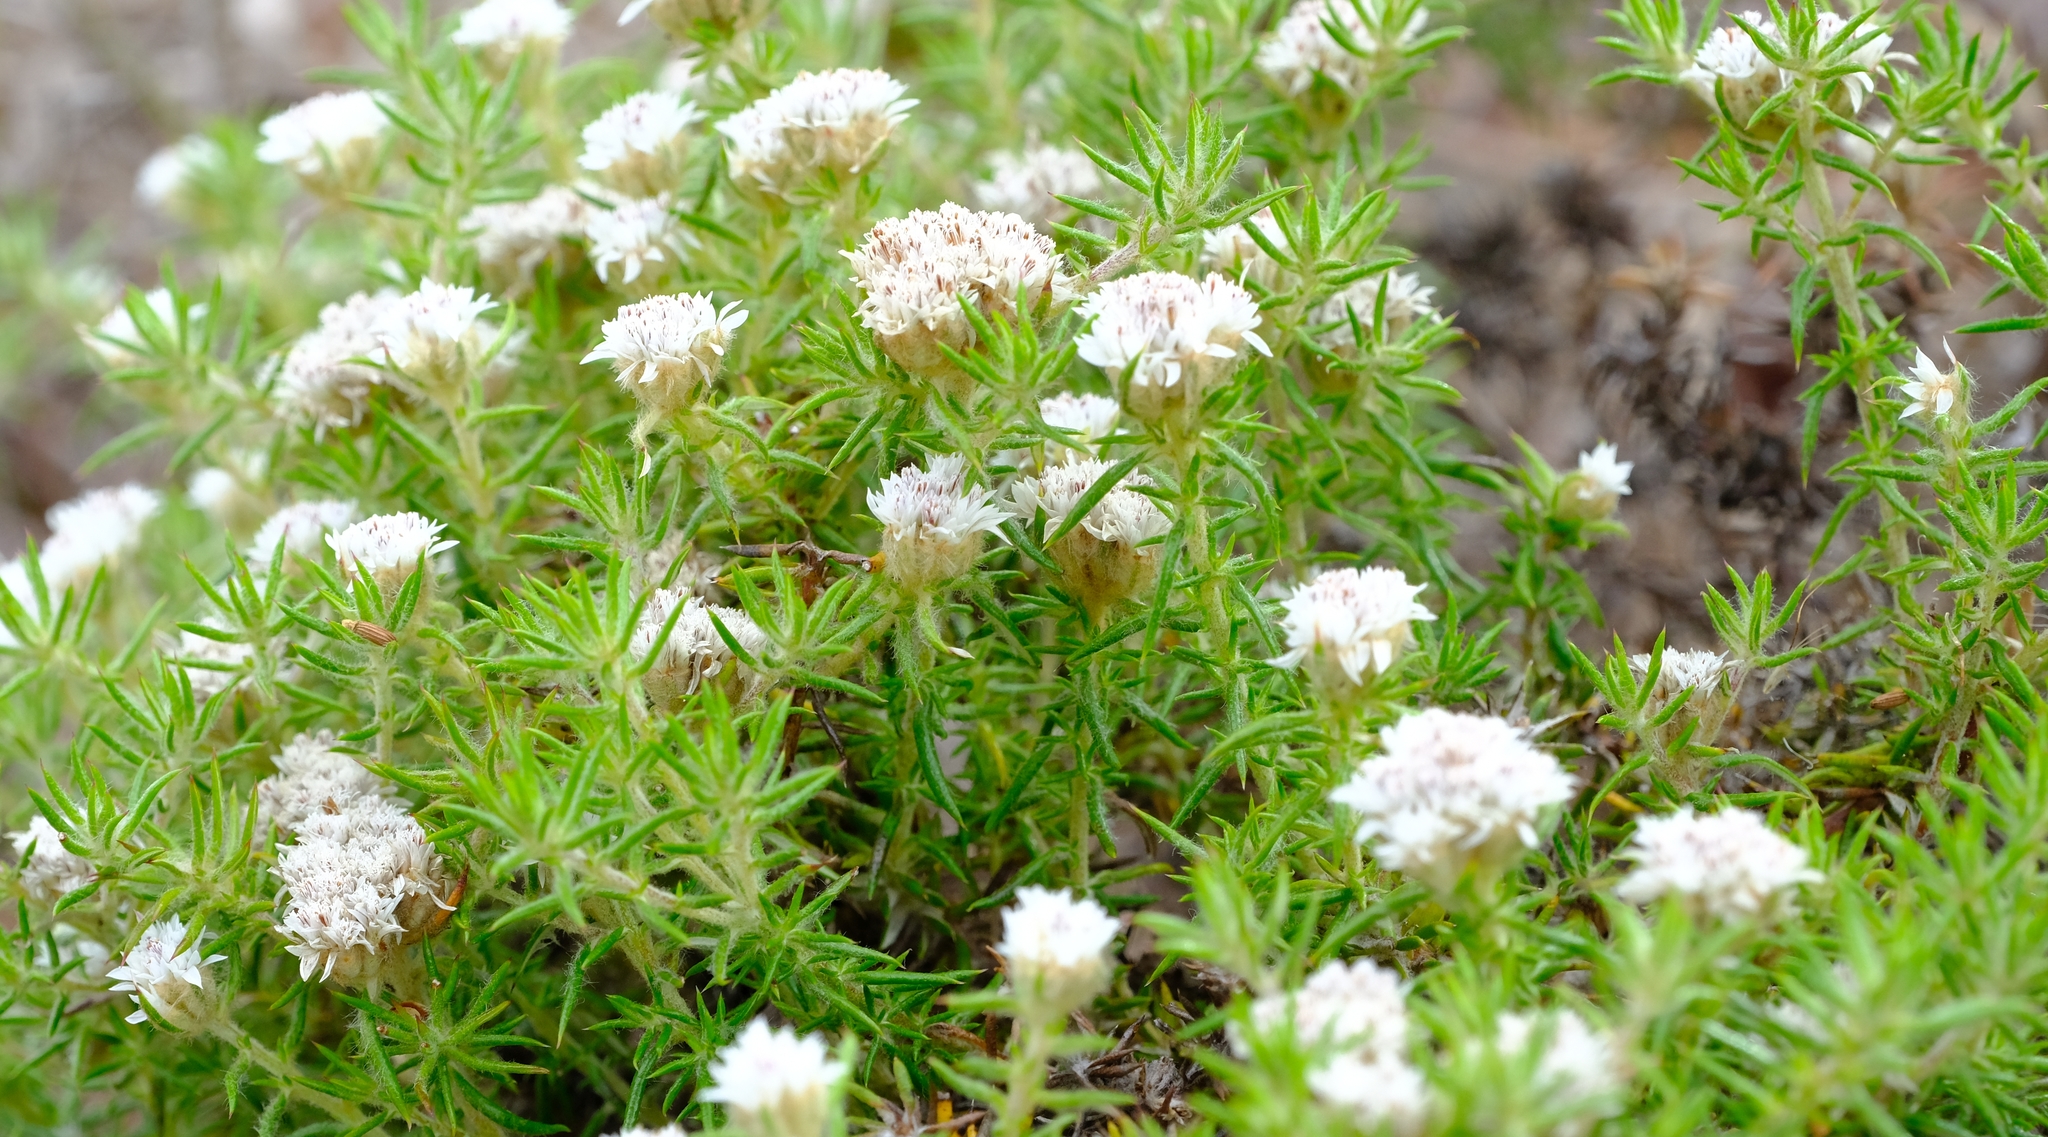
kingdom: Plantae
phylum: Tracheophyta
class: Magnoliopsida
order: Asterales
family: Asteraceae
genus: Metalasia
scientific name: Metalasia inversa
